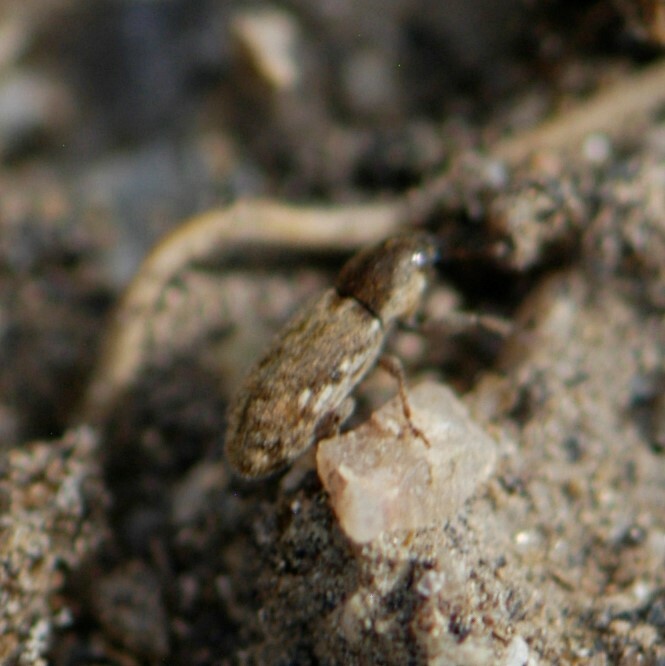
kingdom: Animalia
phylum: Arthropoda
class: Insecta
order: Coleoptera
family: Curculionidae
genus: Microlarinus
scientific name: Microlarinus lypriformis
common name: Weevil
